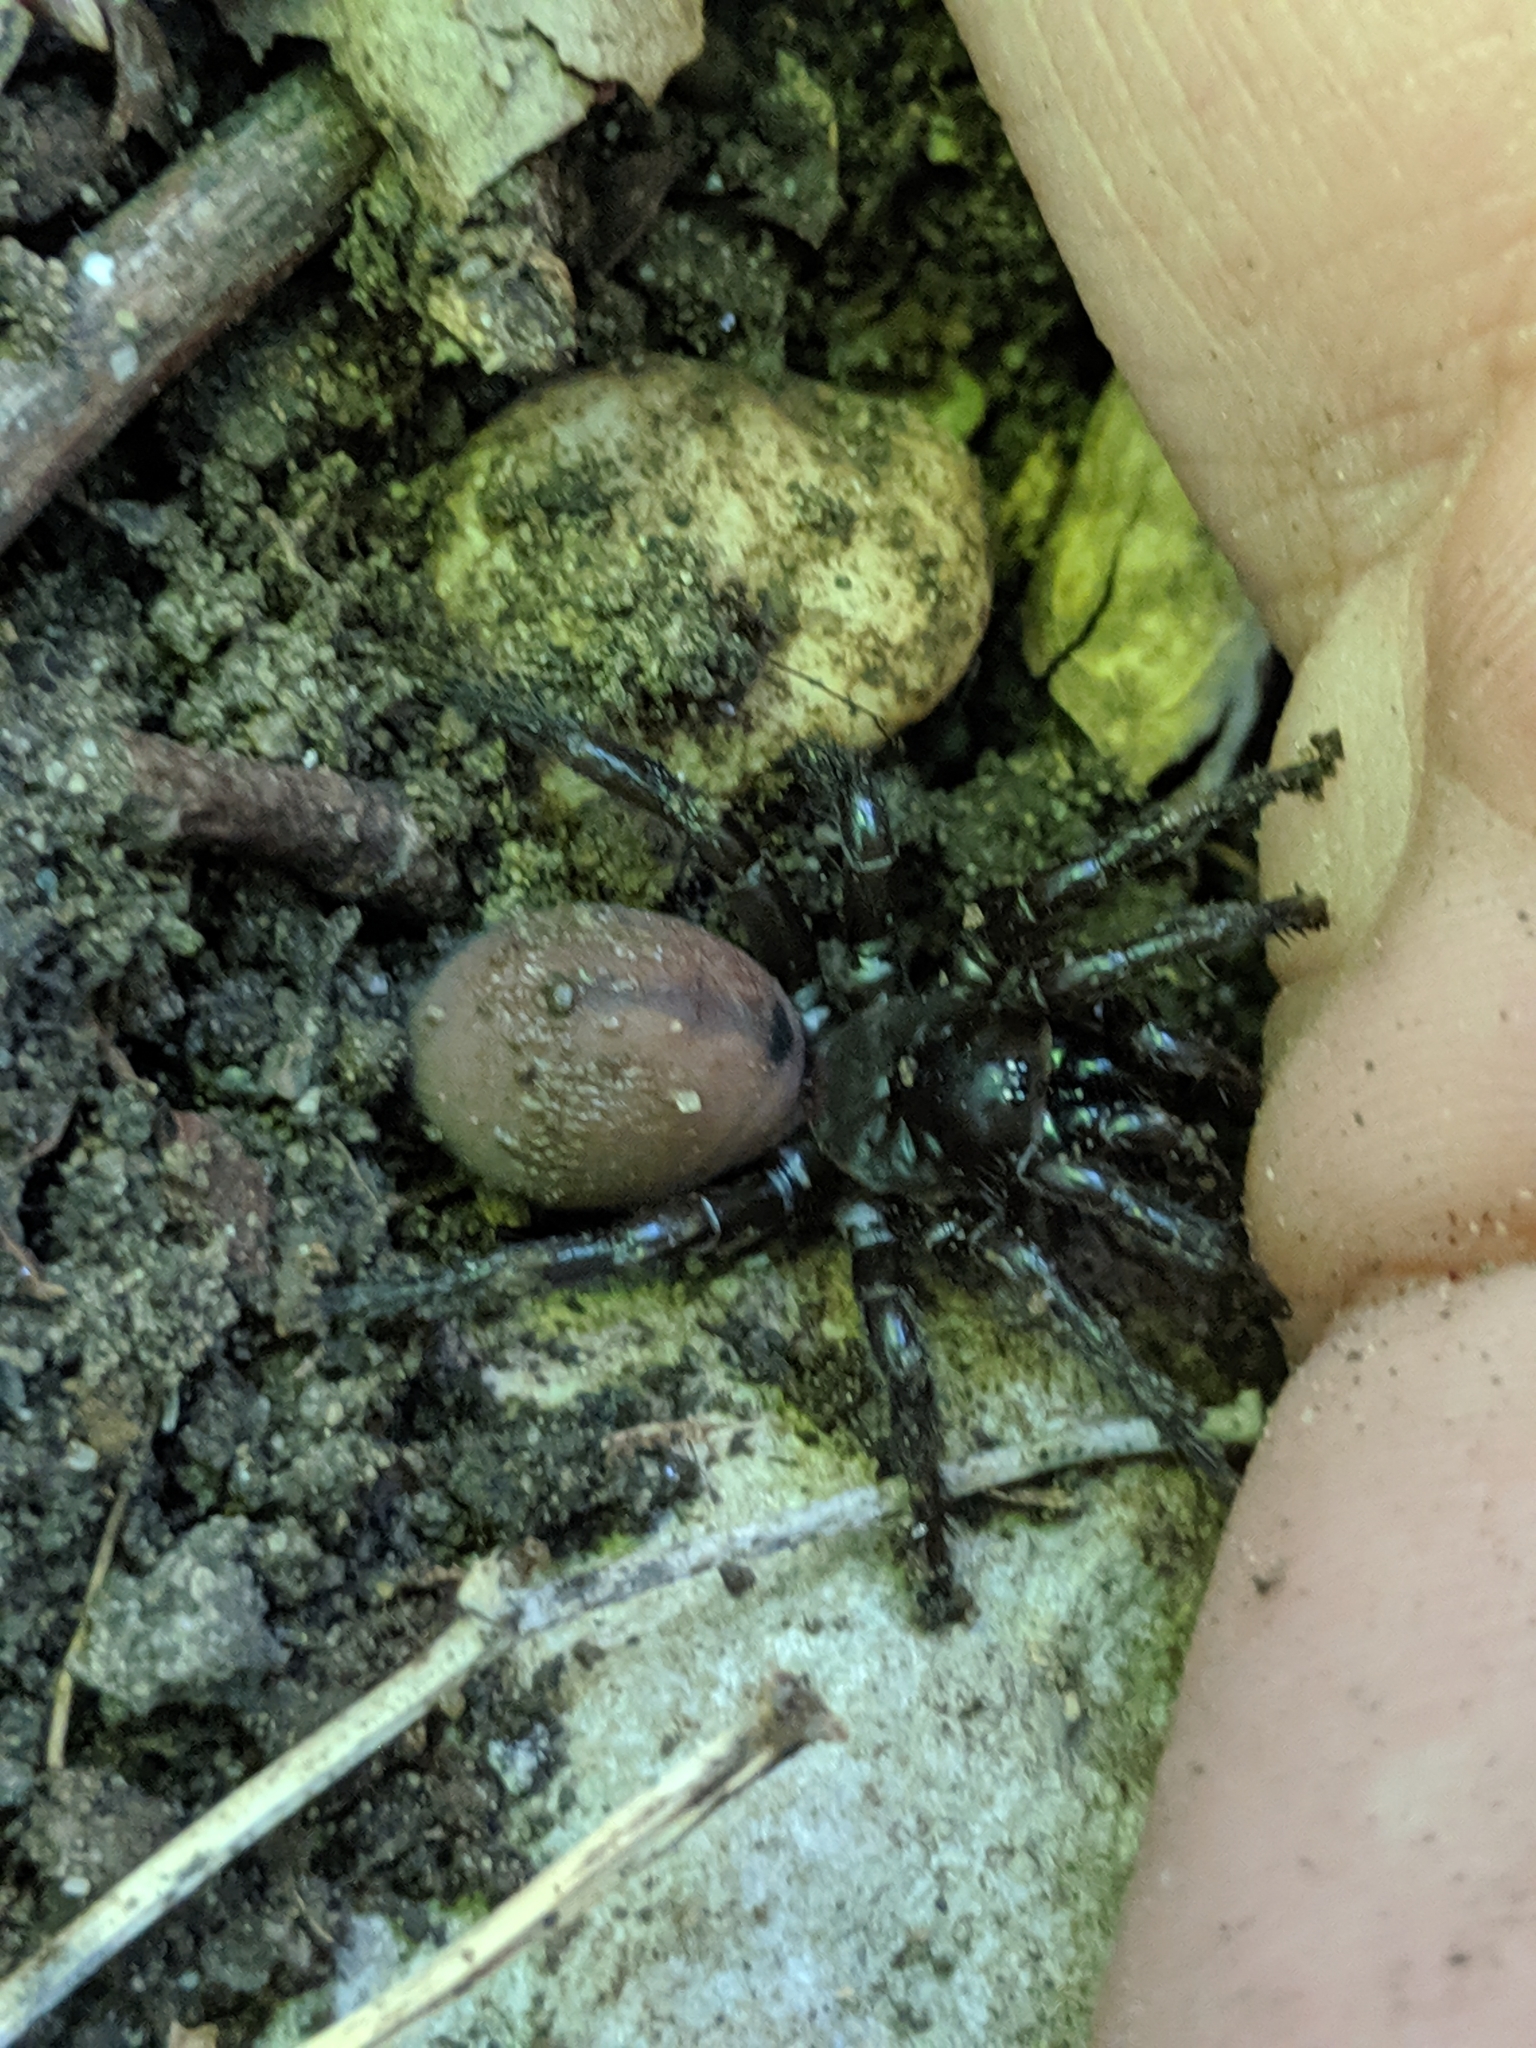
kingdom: Animalia
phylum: Arthropoda
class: Arachnida
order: Araneae
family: Antrodiaetidae
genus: Antrodiaetus
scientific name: Antrodiaetus unicolor
